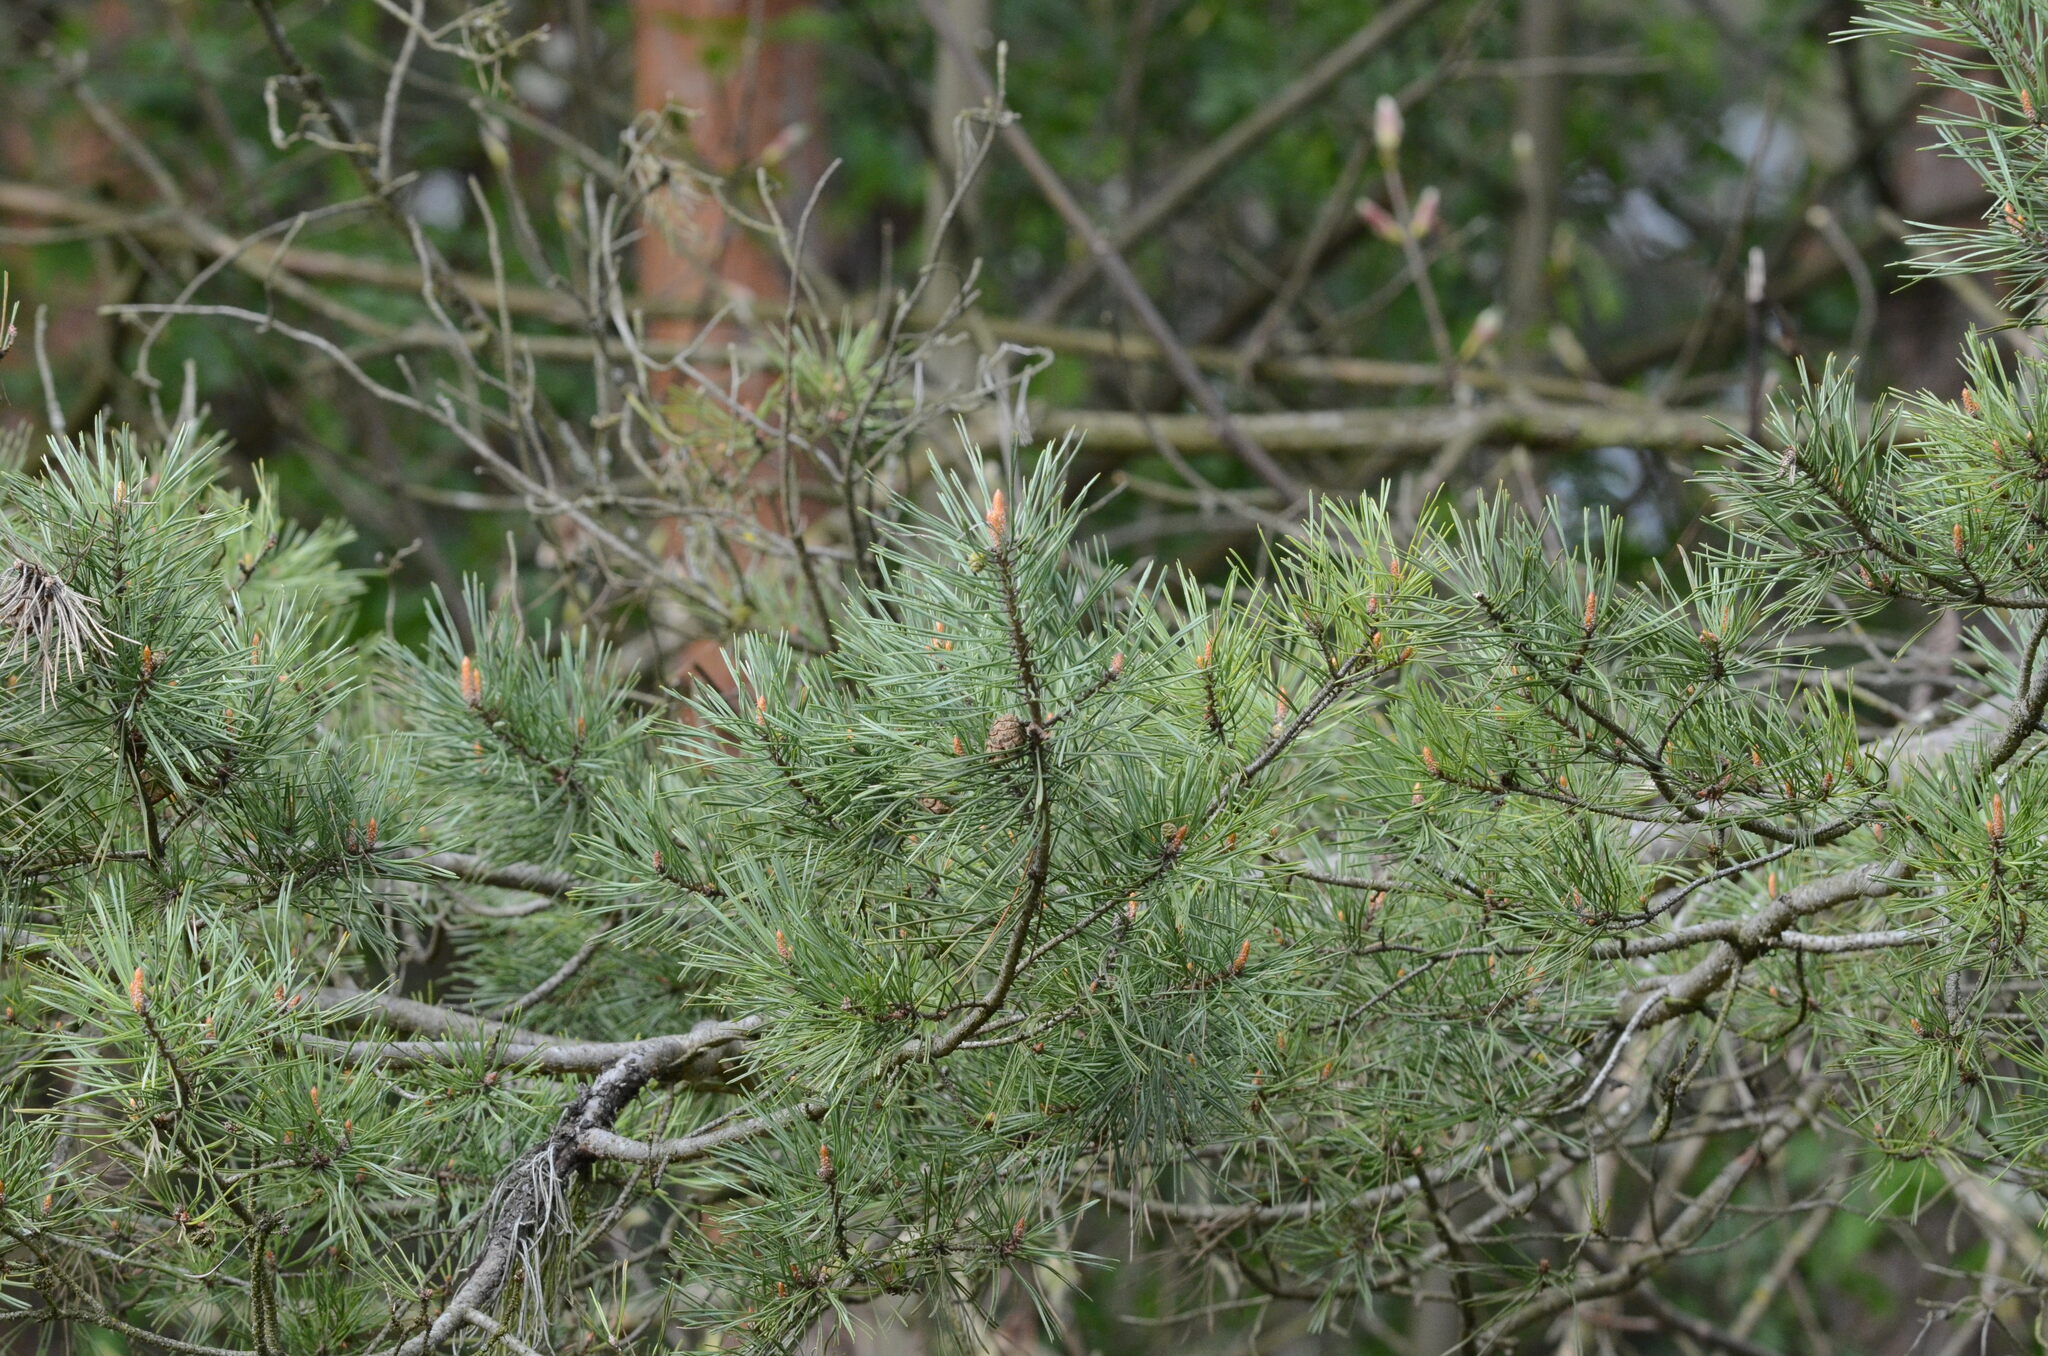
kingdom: Plantae
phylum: Tracheophyta
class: Pinopsida
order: Pinales
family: Pinaceae
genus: Pinus
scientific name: Pinus sylvestris
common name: Scots pine
